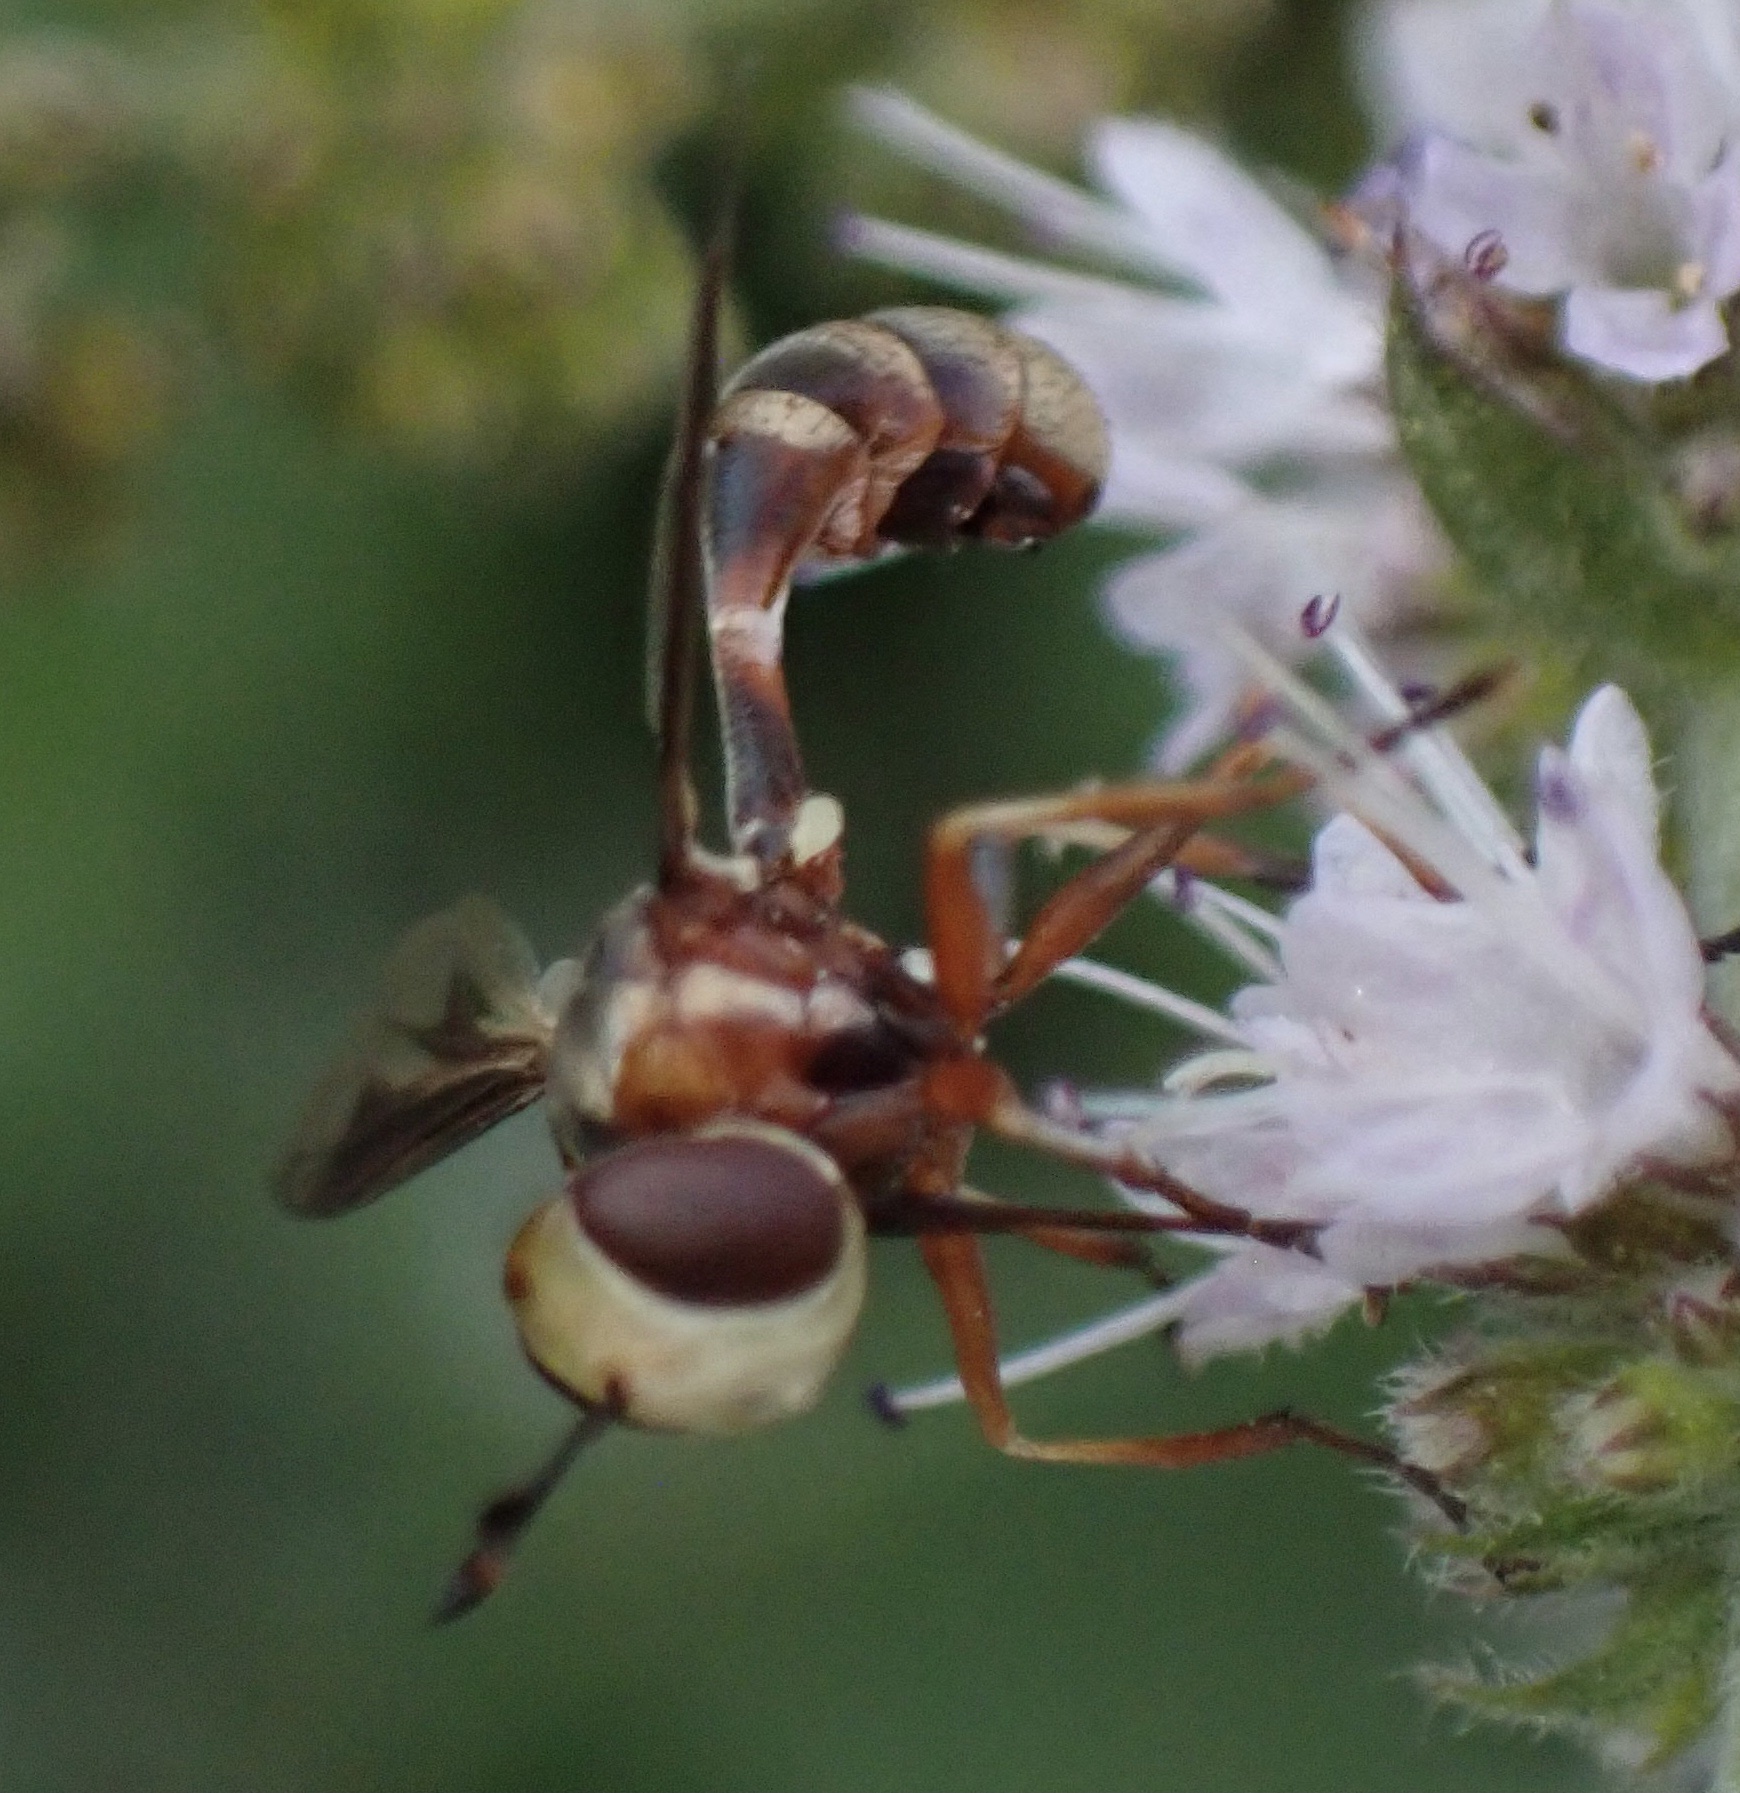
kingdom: Animalia
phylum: Arthropoda
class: Insecta
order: Diptera
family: Conopidae
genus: Physocephala
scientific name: Physocephala vittata
